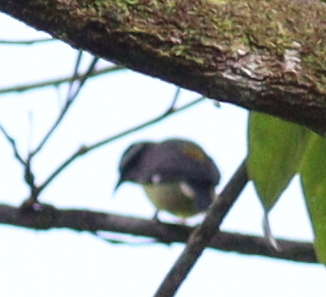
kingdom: Animalia
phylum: Chordata
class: Aves
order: Passeriformes
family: Thraupidae
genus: Coereba
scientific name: Coereba flaveola
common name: Bananaquit
